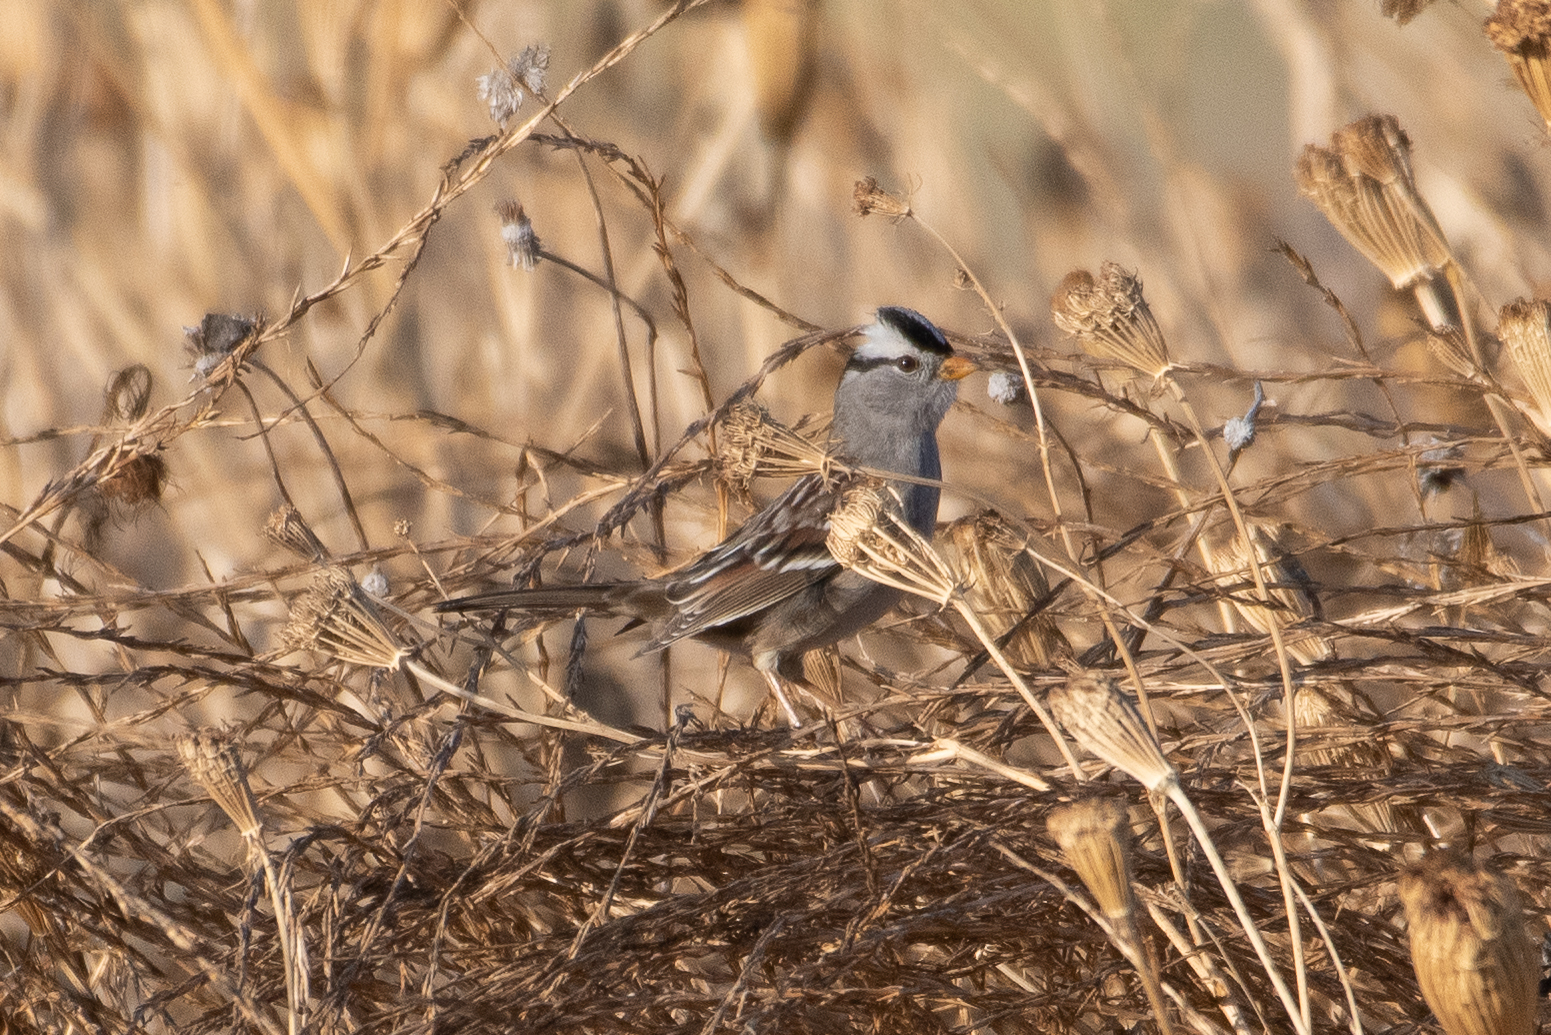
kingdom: Animalia
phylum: Chordata
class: Aves
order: Passeriformes
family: Passerellidae
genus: Zonotrichia
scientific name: Zonotrichia leucophrys
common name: White-crowned sparrow
